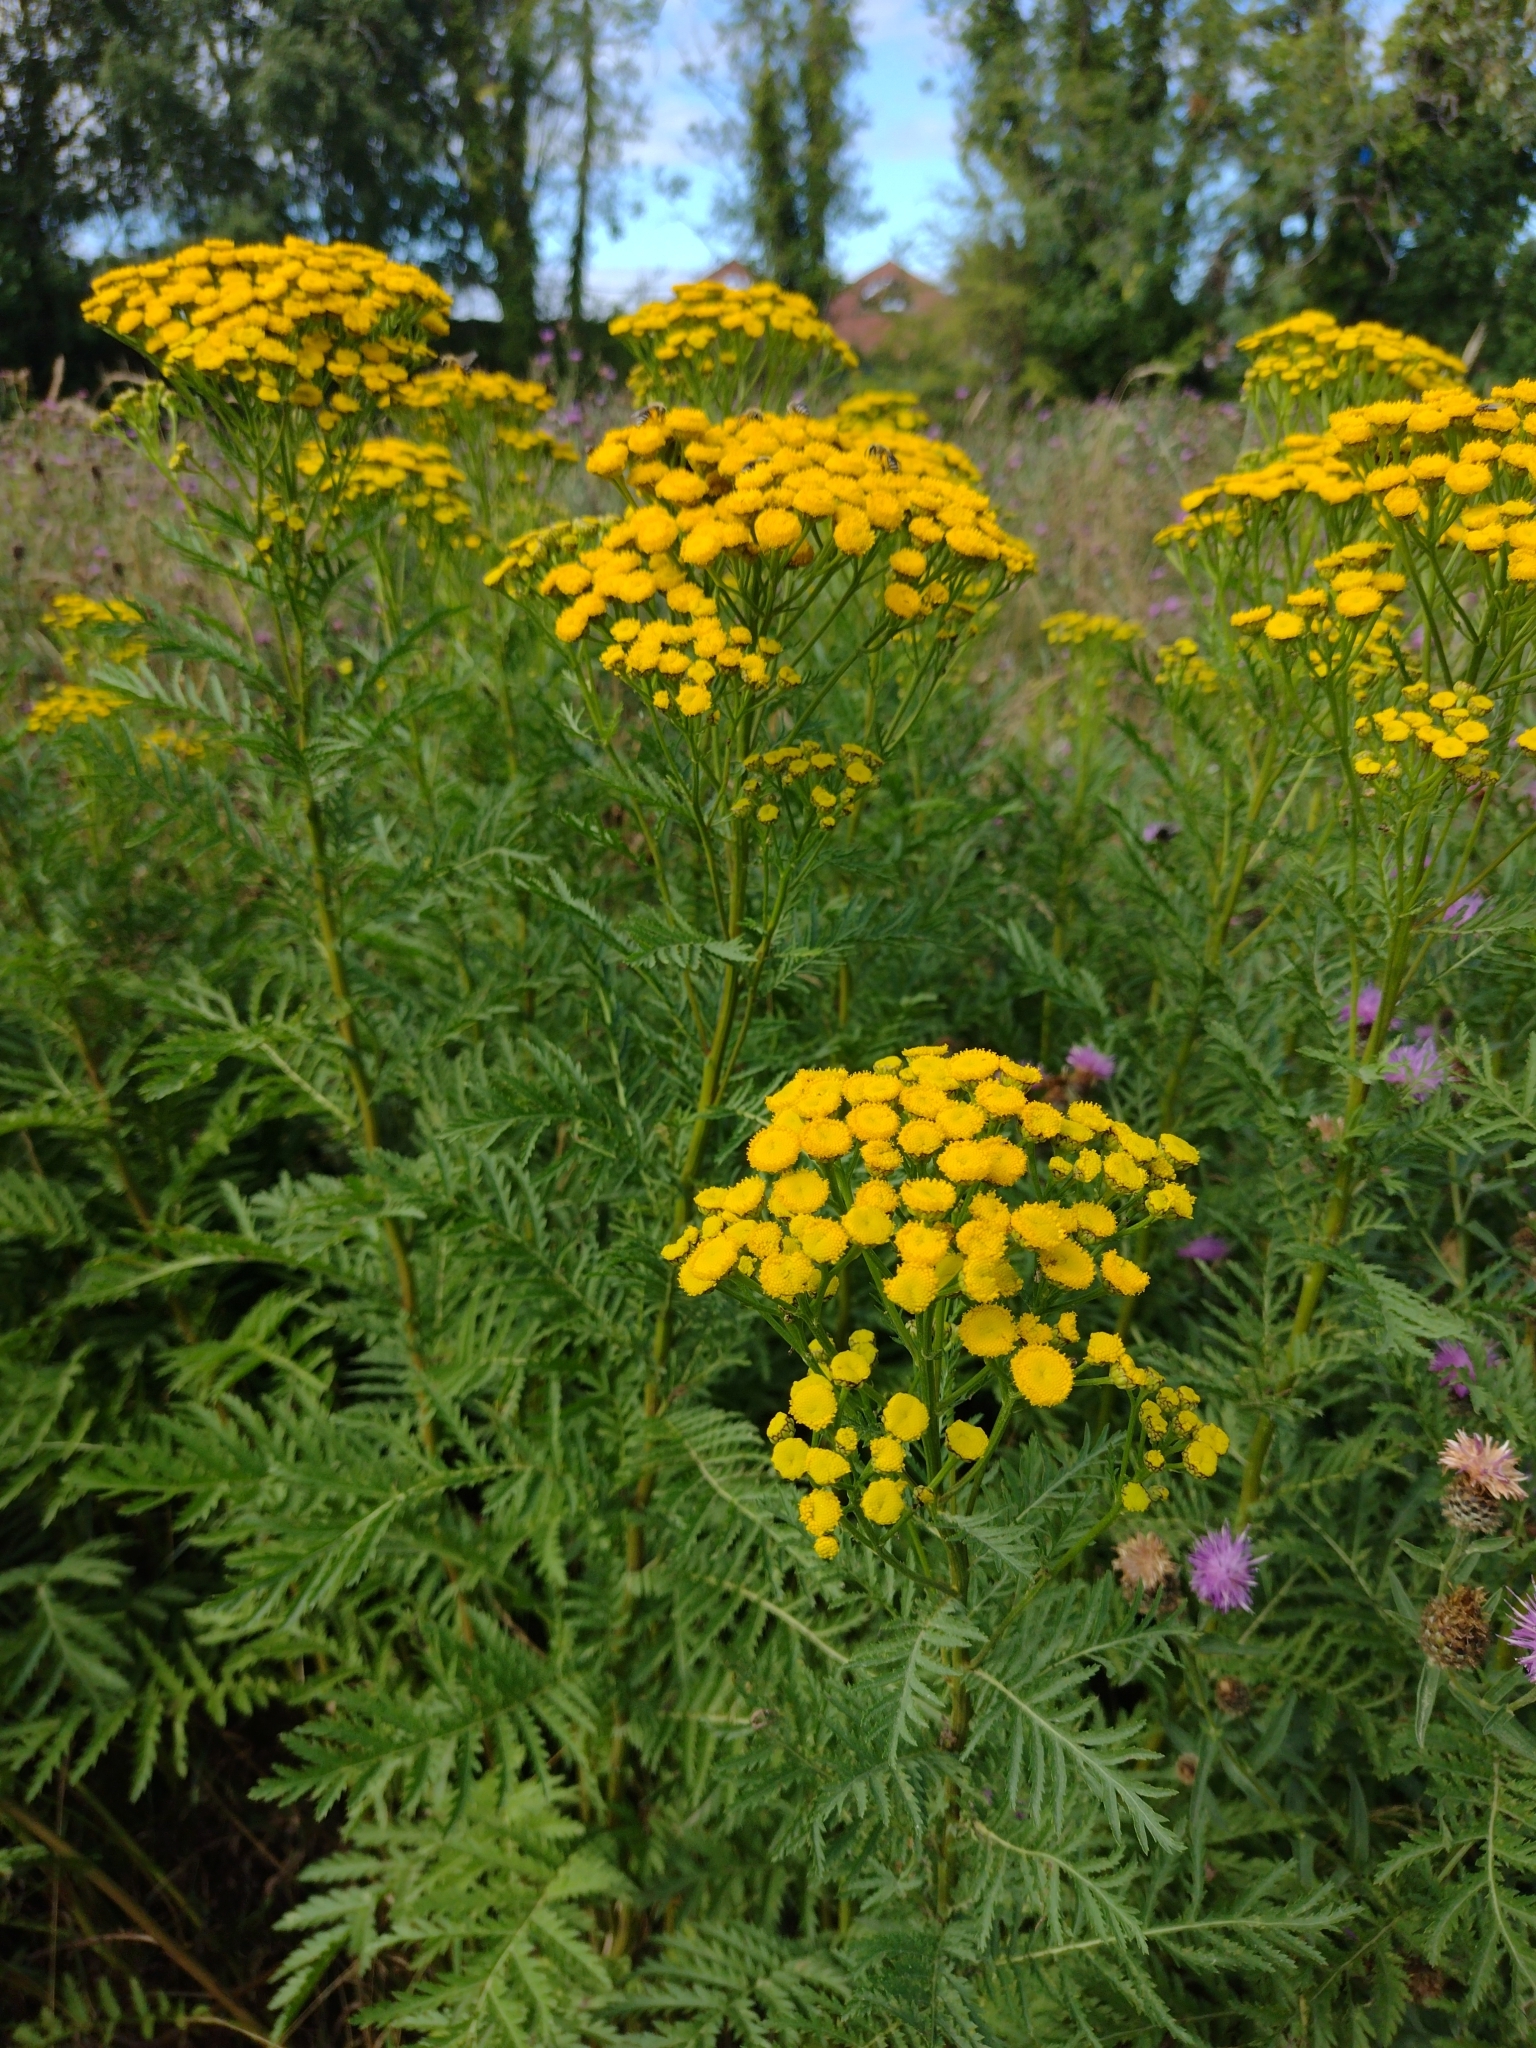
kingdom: Plantae
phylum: Tracheophyta
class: Magnoliopsida
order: Asterales
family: Asteraceae
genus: Tanacetum
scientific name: Tanacetum vulgare
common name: Common tansy
